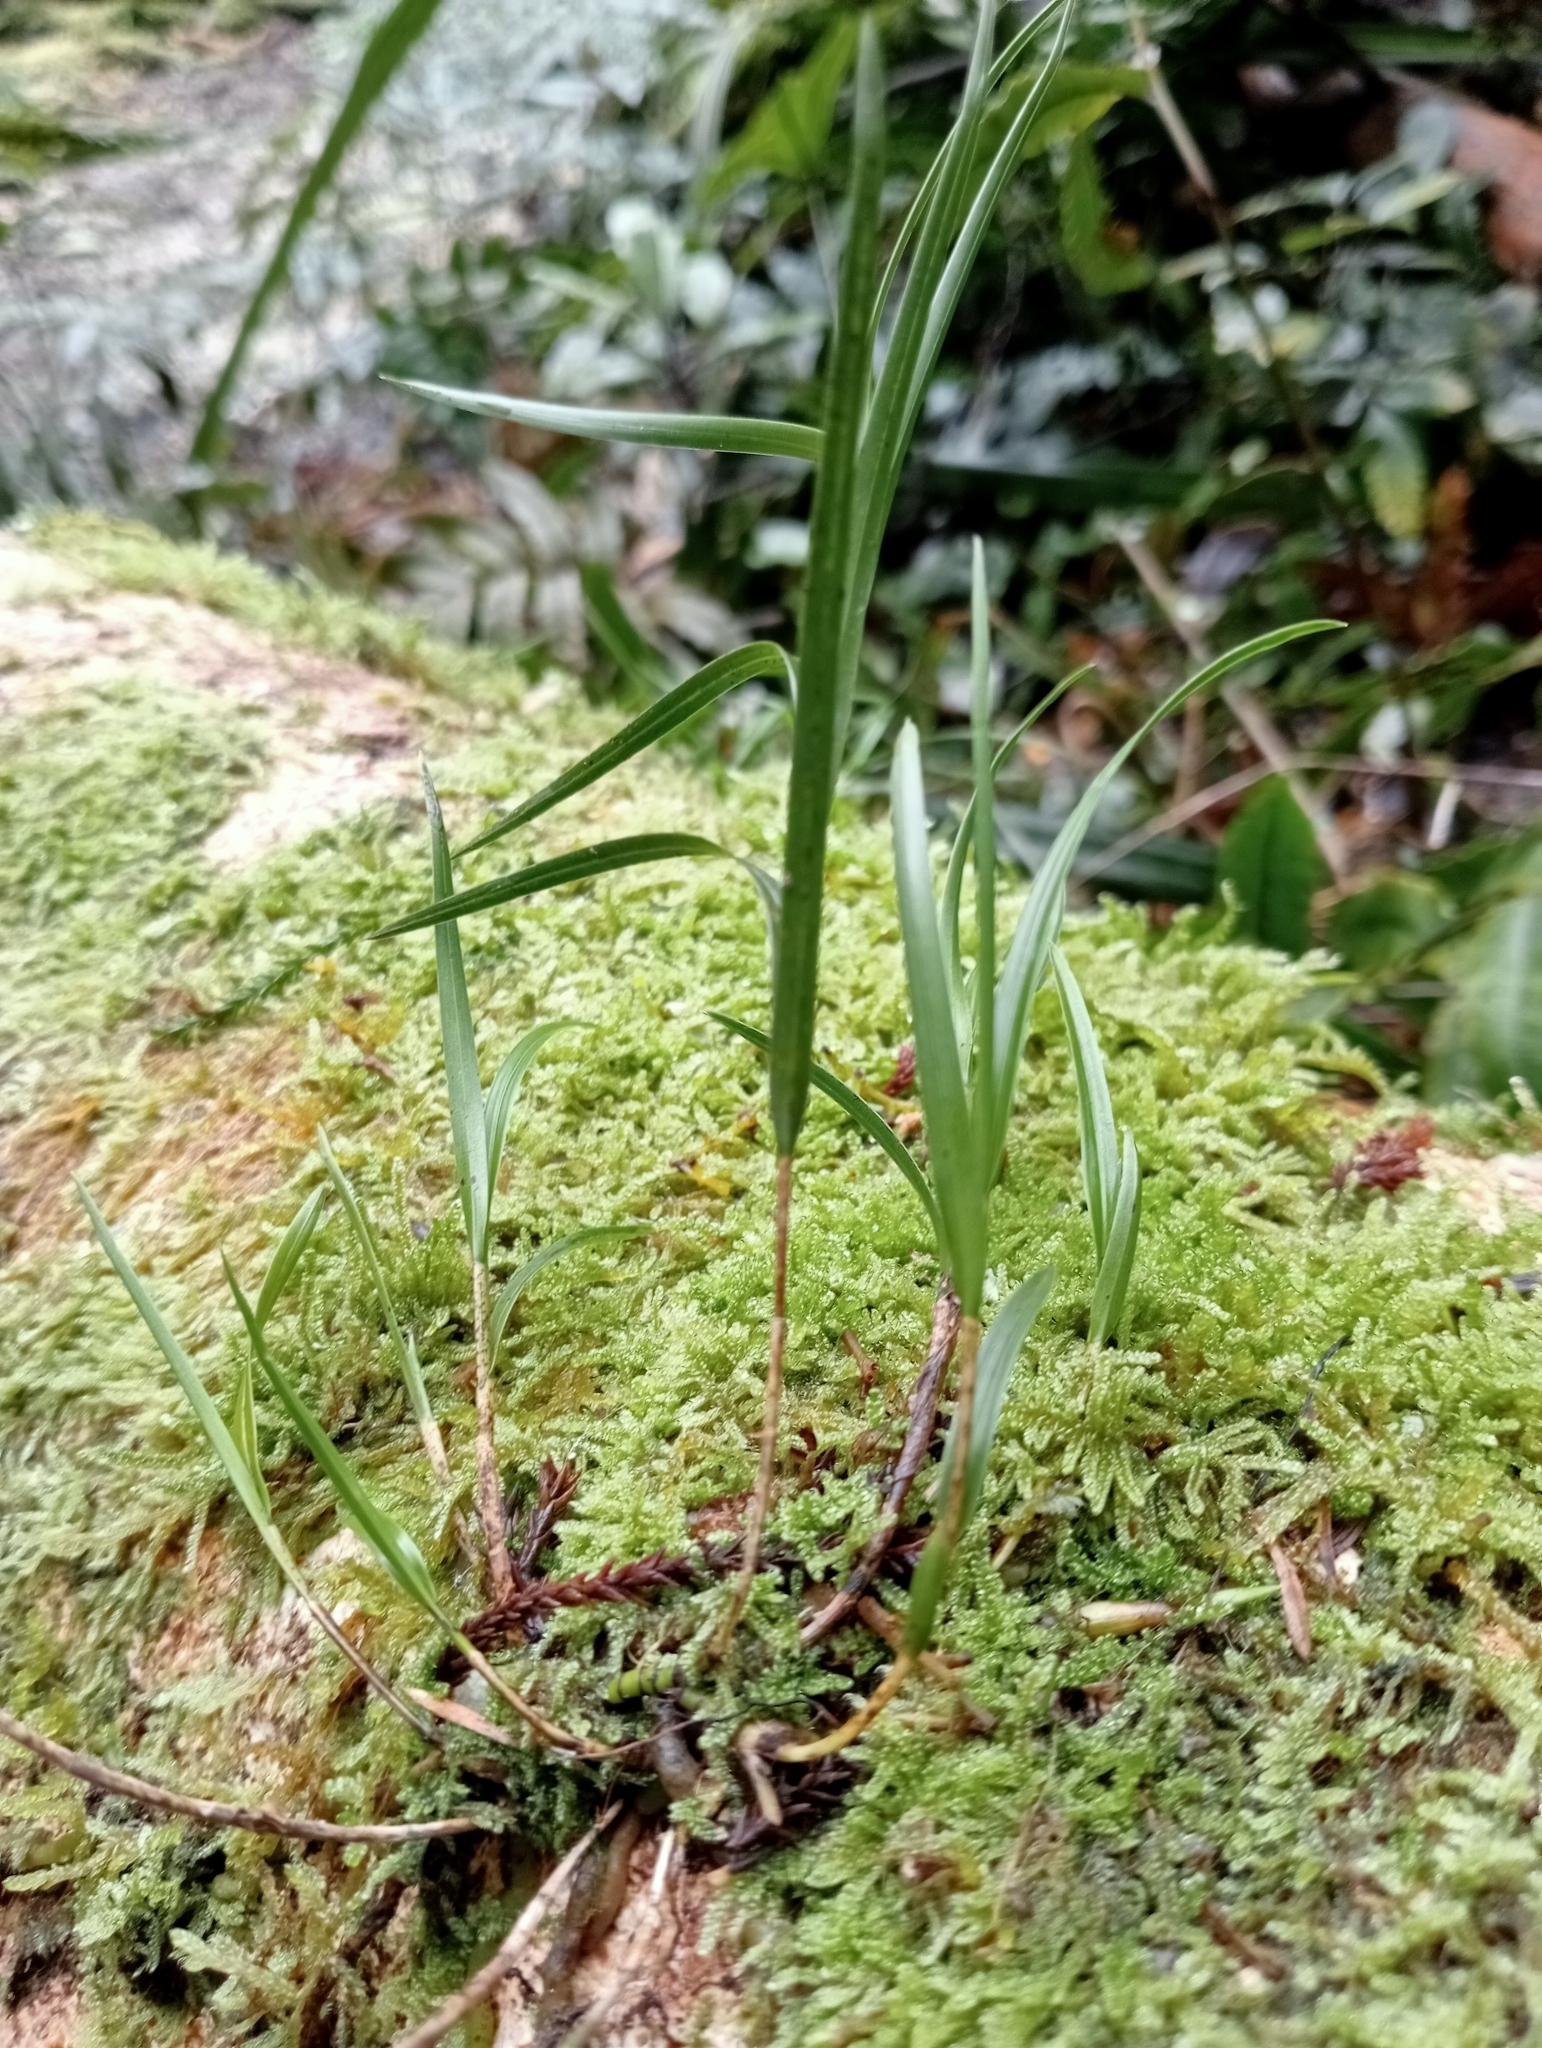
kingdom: Plantae
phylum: Tracheophyta
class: Liliopsida
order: Asparagales
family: Orchidaceae
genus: Earina
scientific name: Earina mucronata
